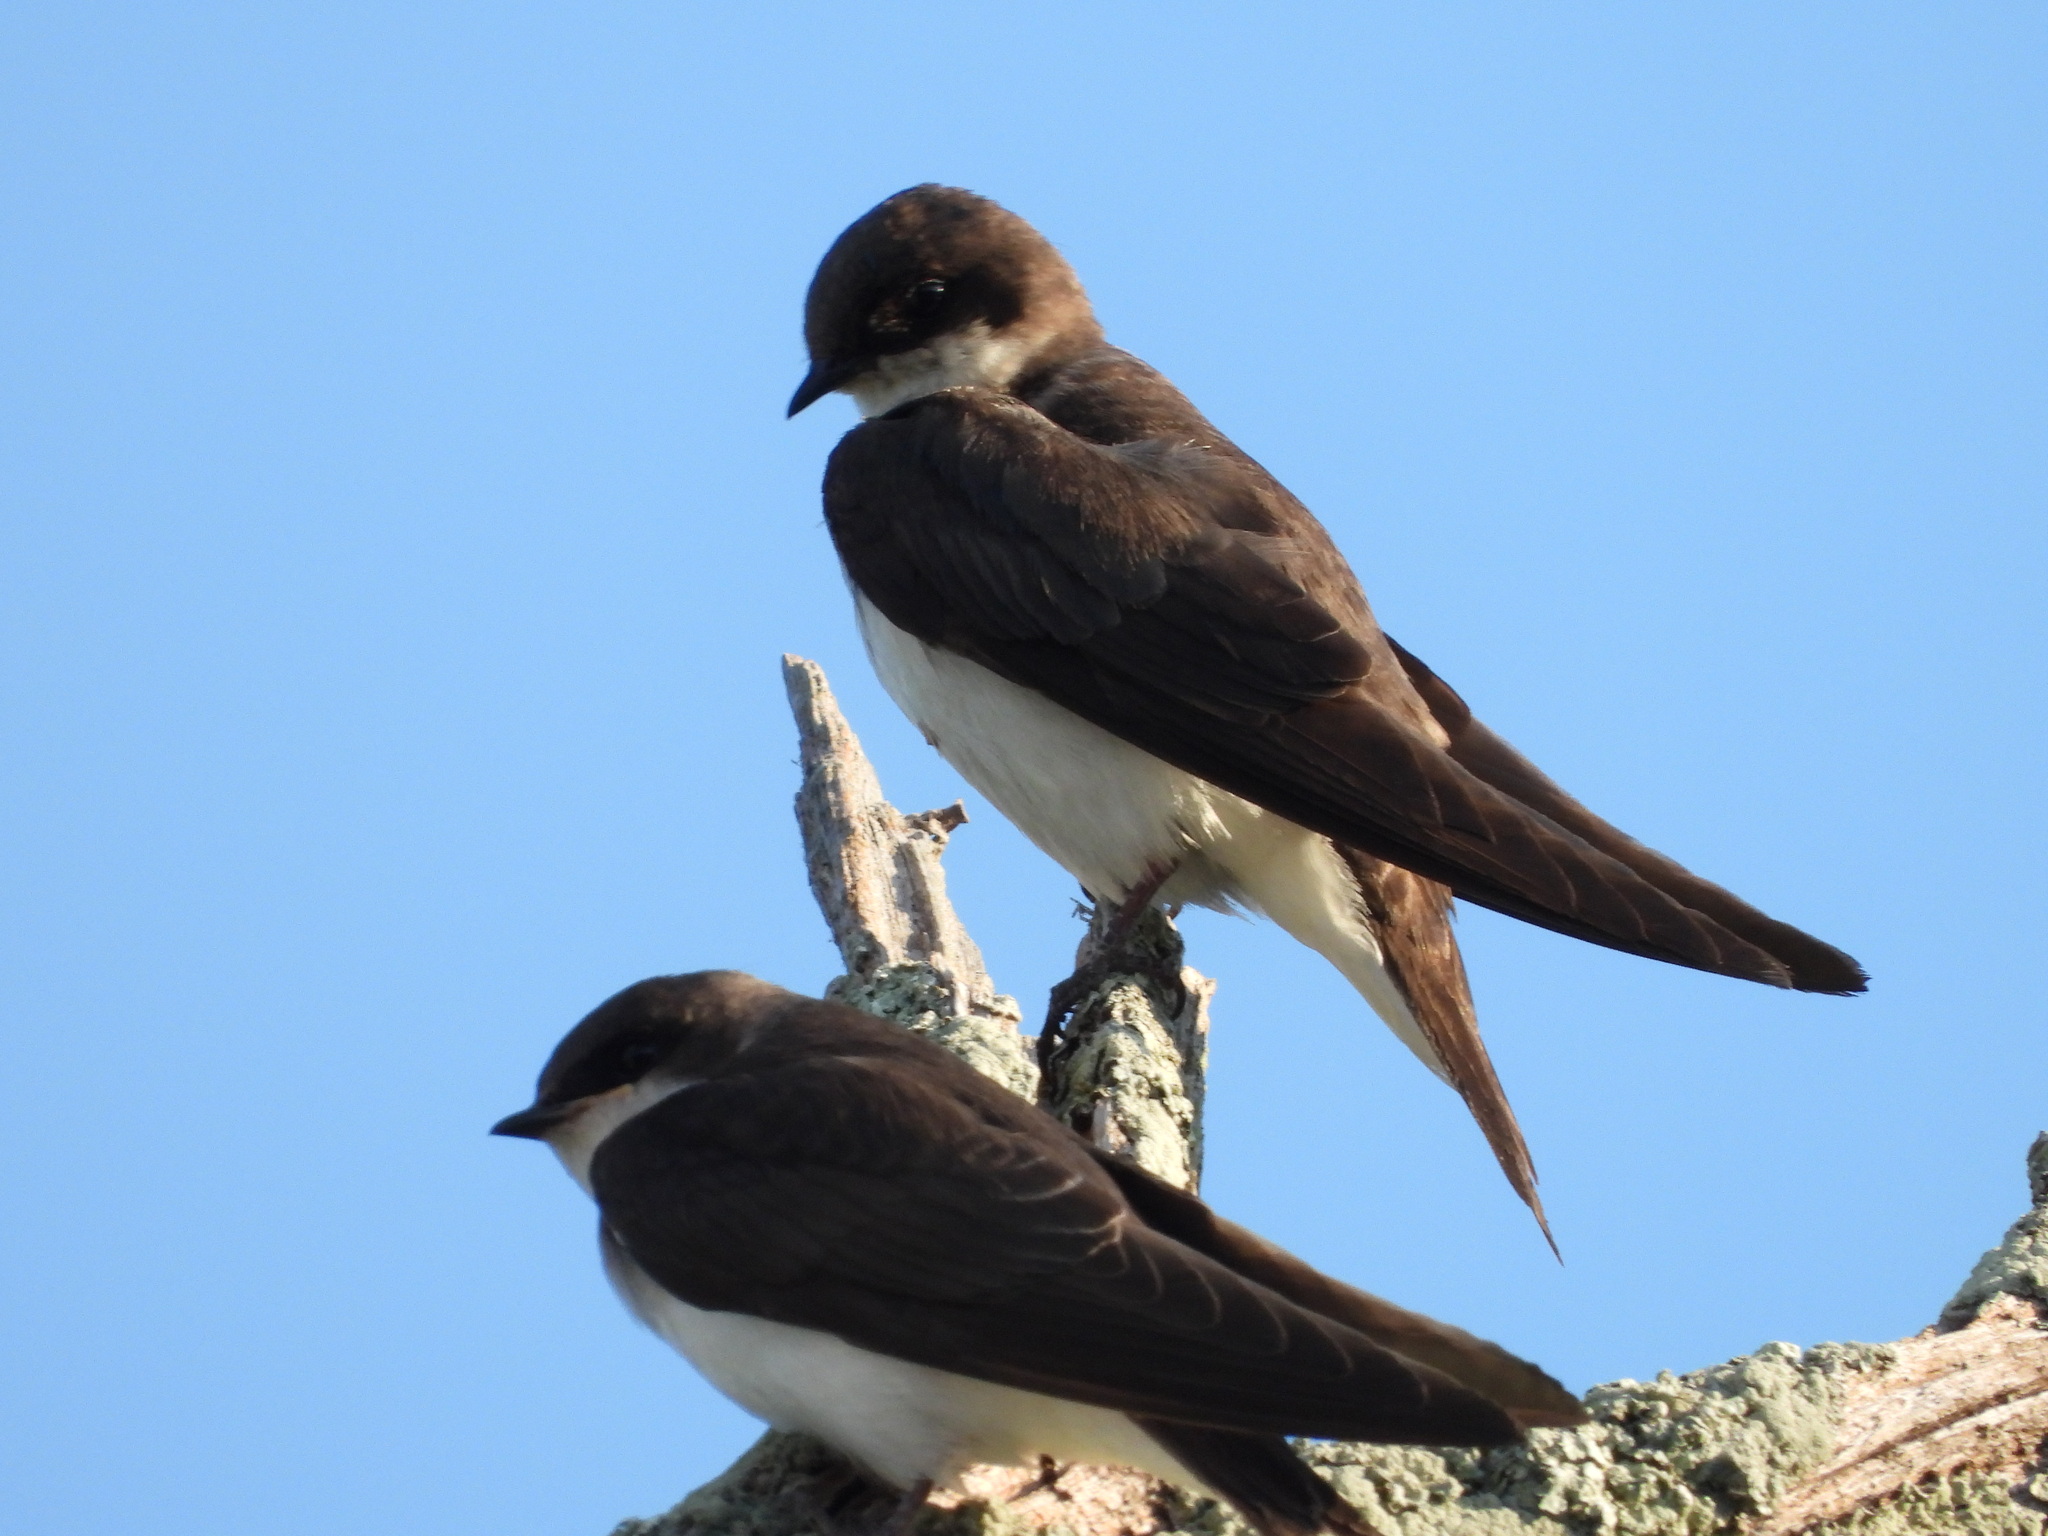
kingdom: Animalia
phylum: Chordata
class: Aves
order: Passeriformes
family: Hirundinidae
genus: Tachycineta
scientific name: Tachycineta bicolor
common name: Tree swallow
